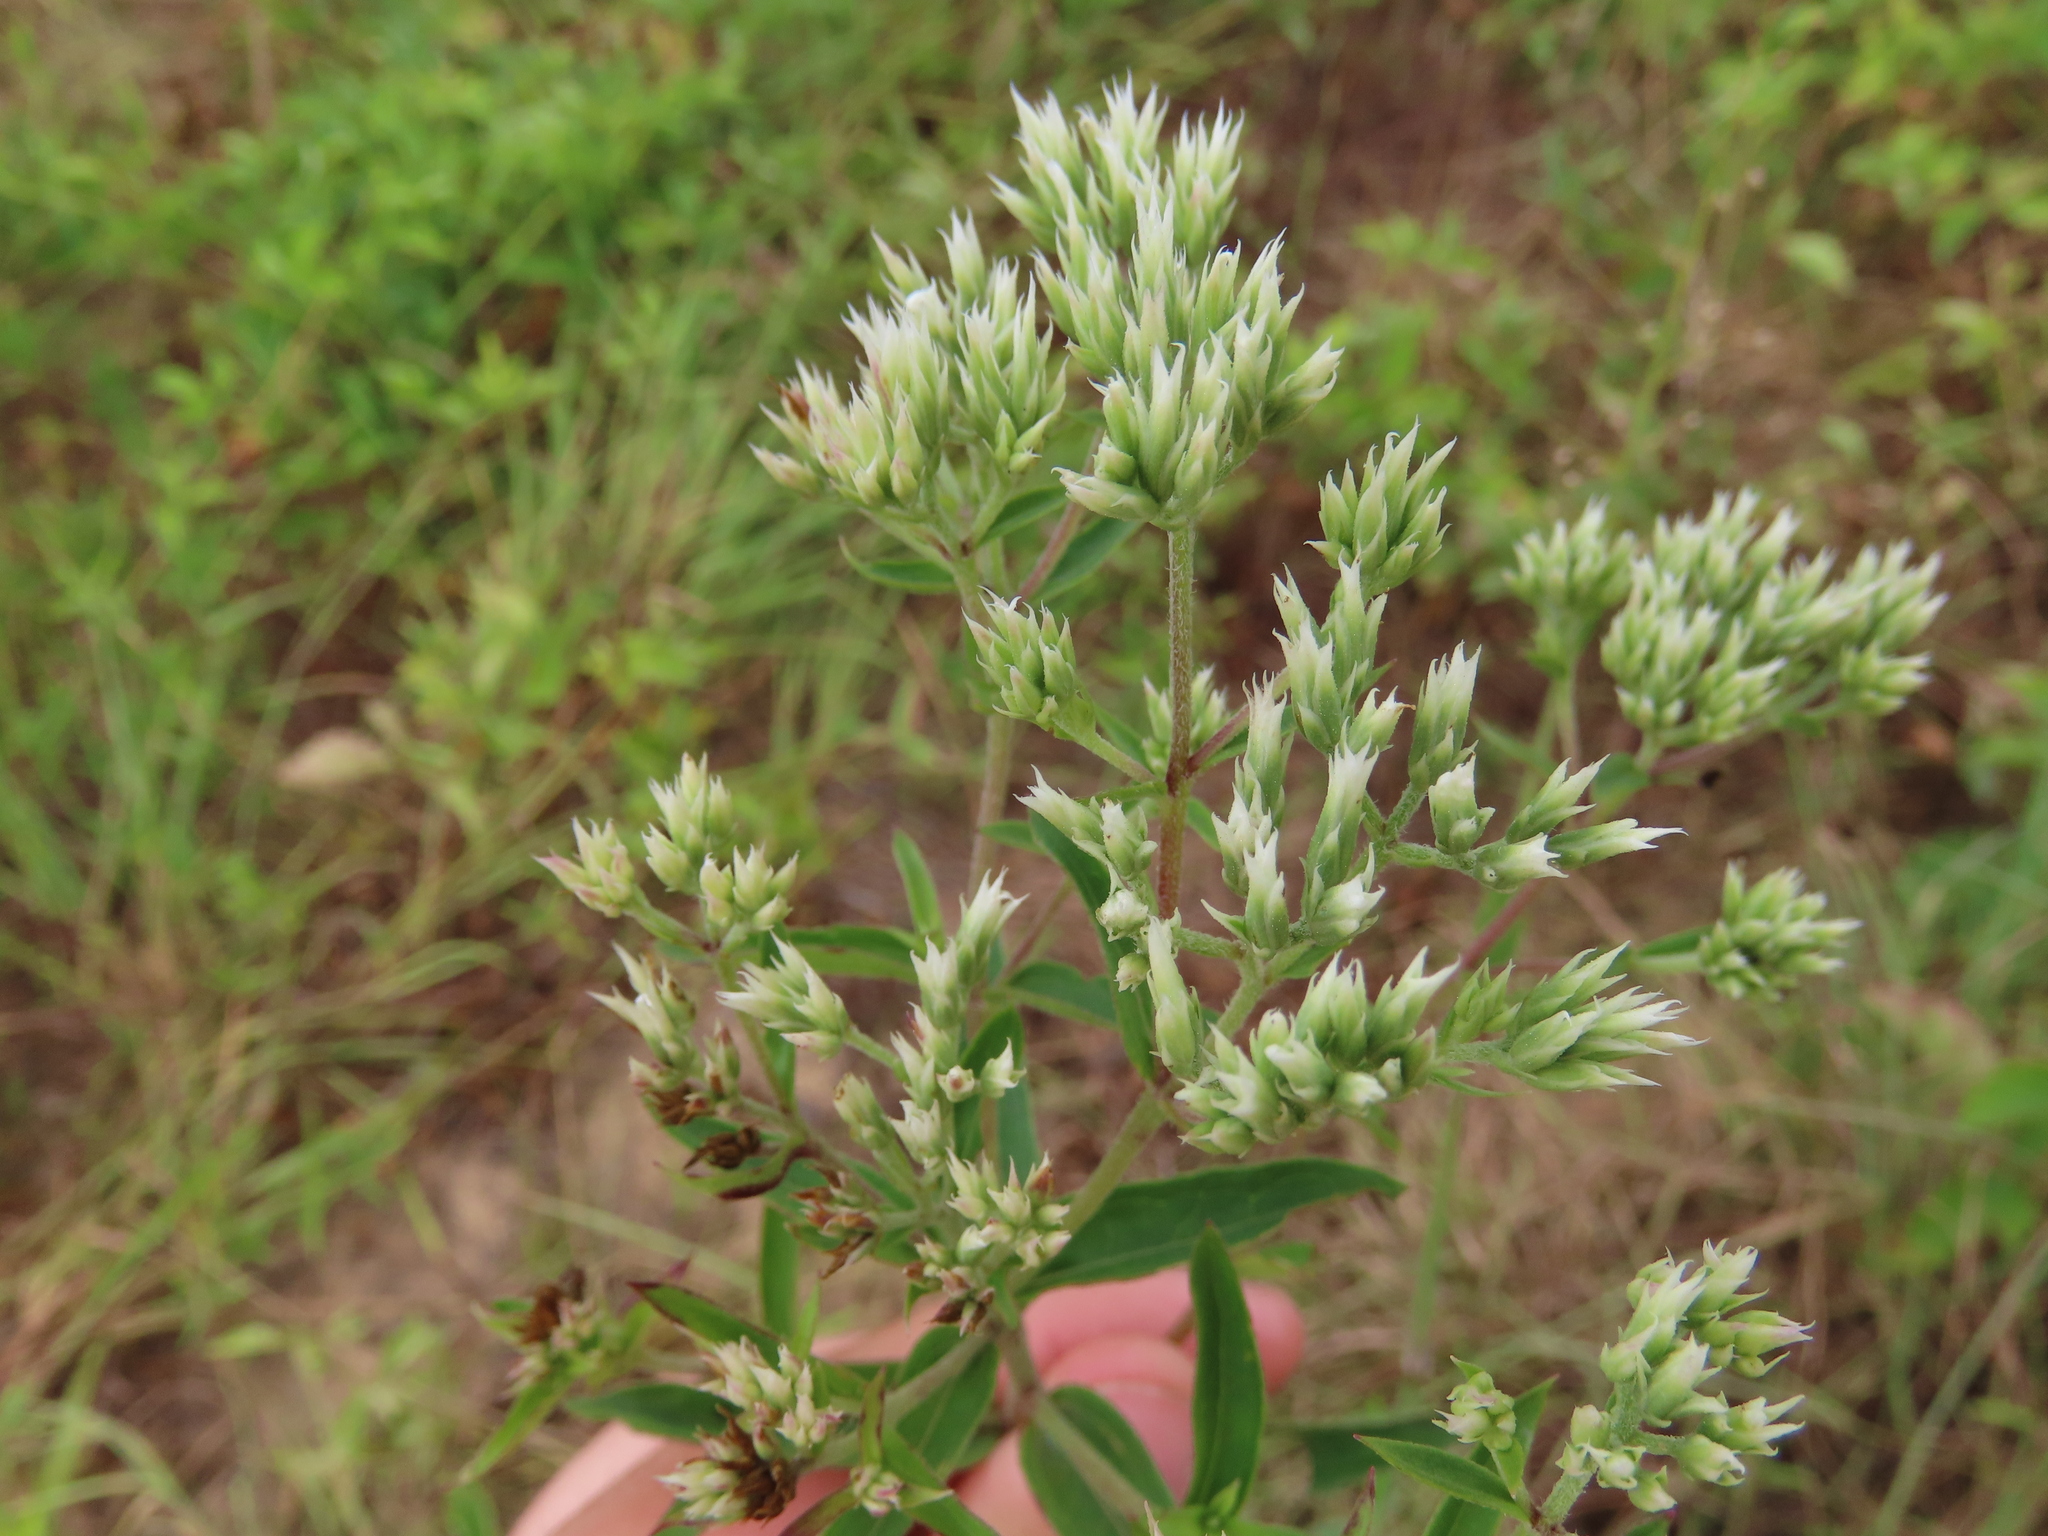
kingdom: Plantae
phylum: Tracheophyta
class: Magnoliopsida
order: Asterales
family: Asteraceae
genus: Eupatorium
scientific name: Eupatorium album
